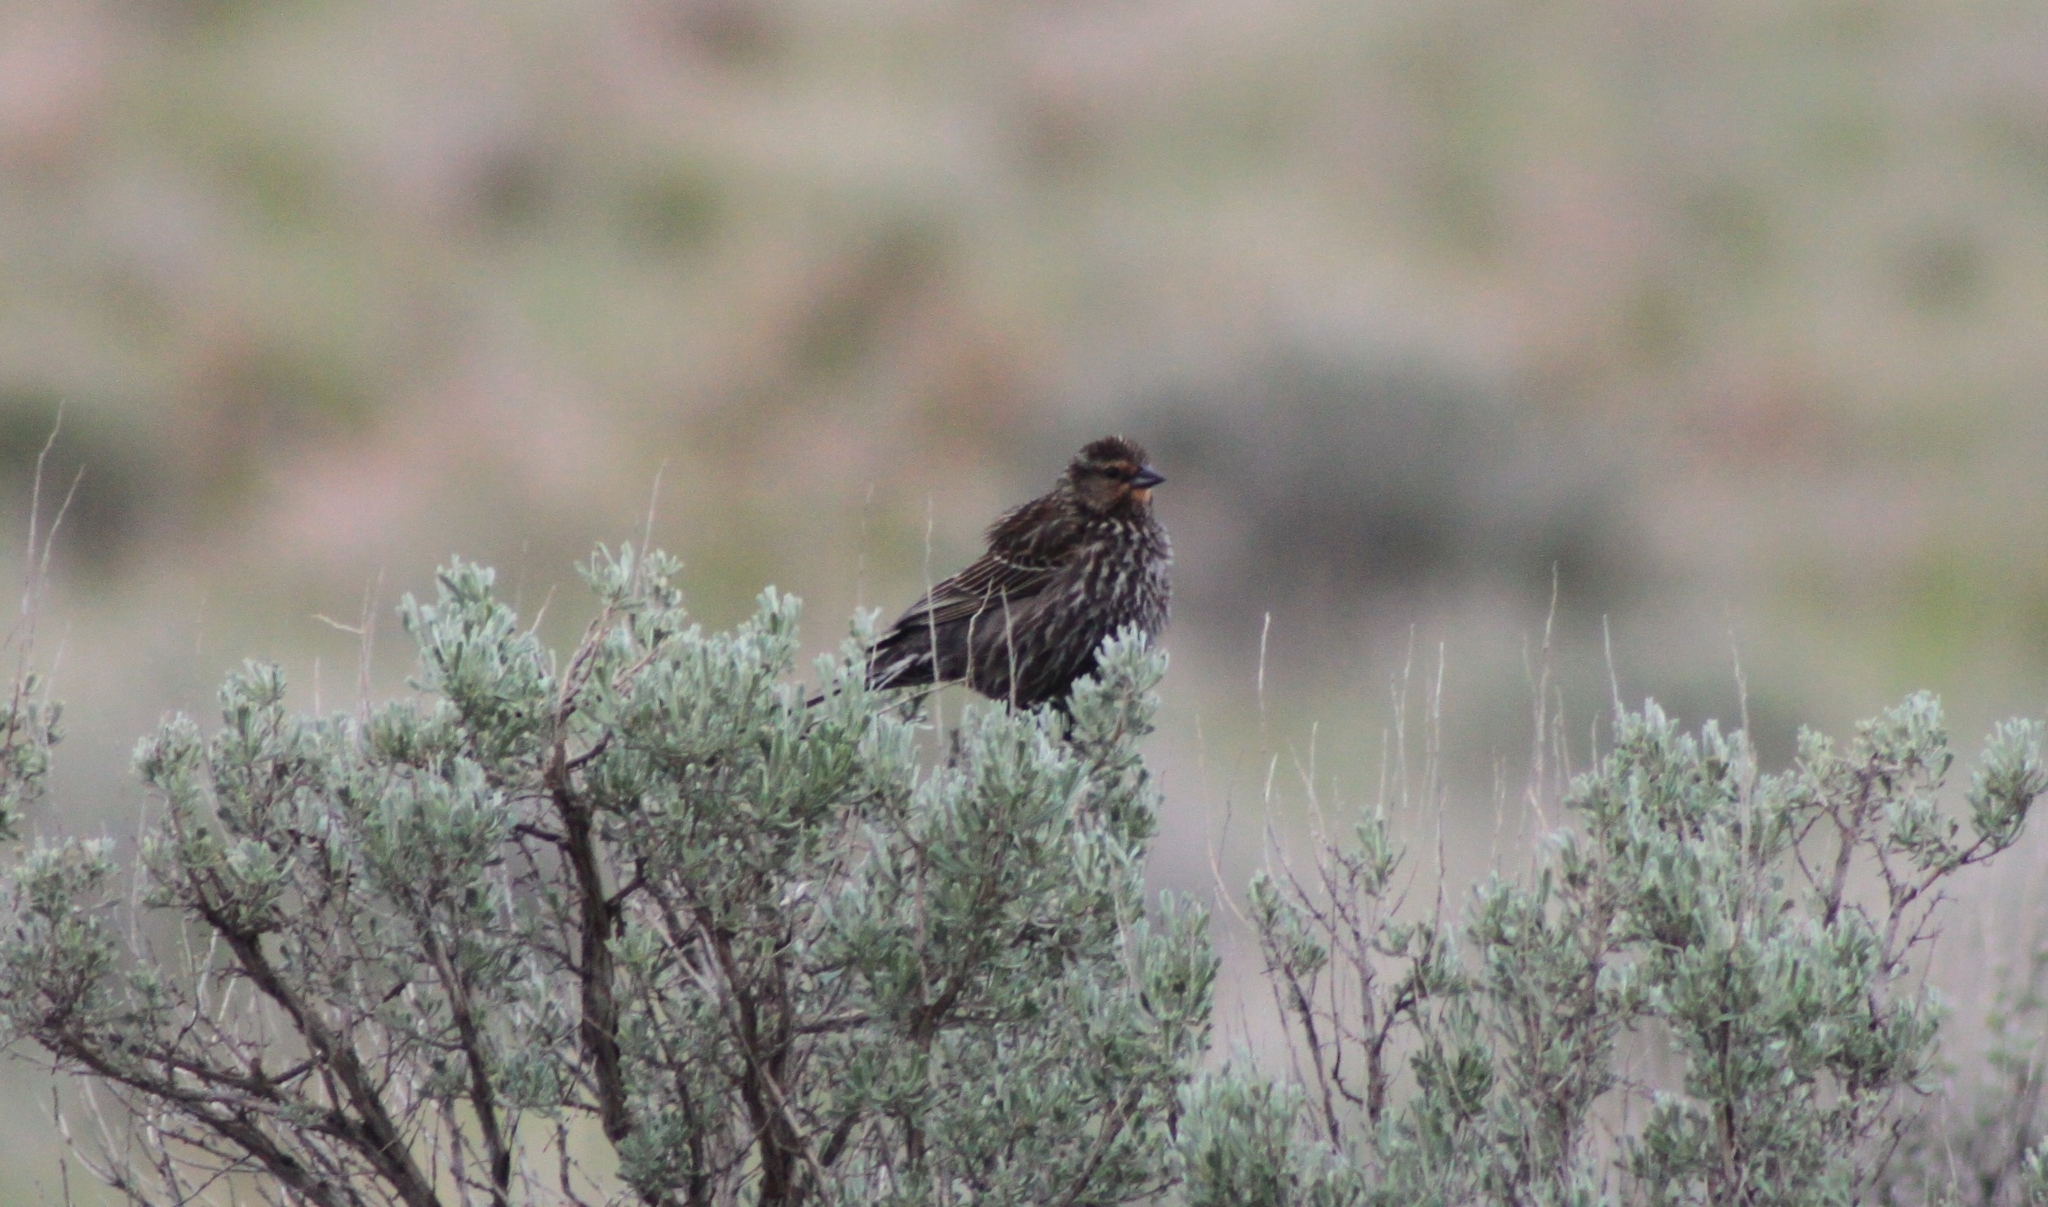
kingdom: Animalia
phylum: Chordata
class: Aves
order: Passeriformes
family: Icteridae
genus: Agelaius
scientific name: Agelaius phoeniceus
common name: Red-winged blackbird
